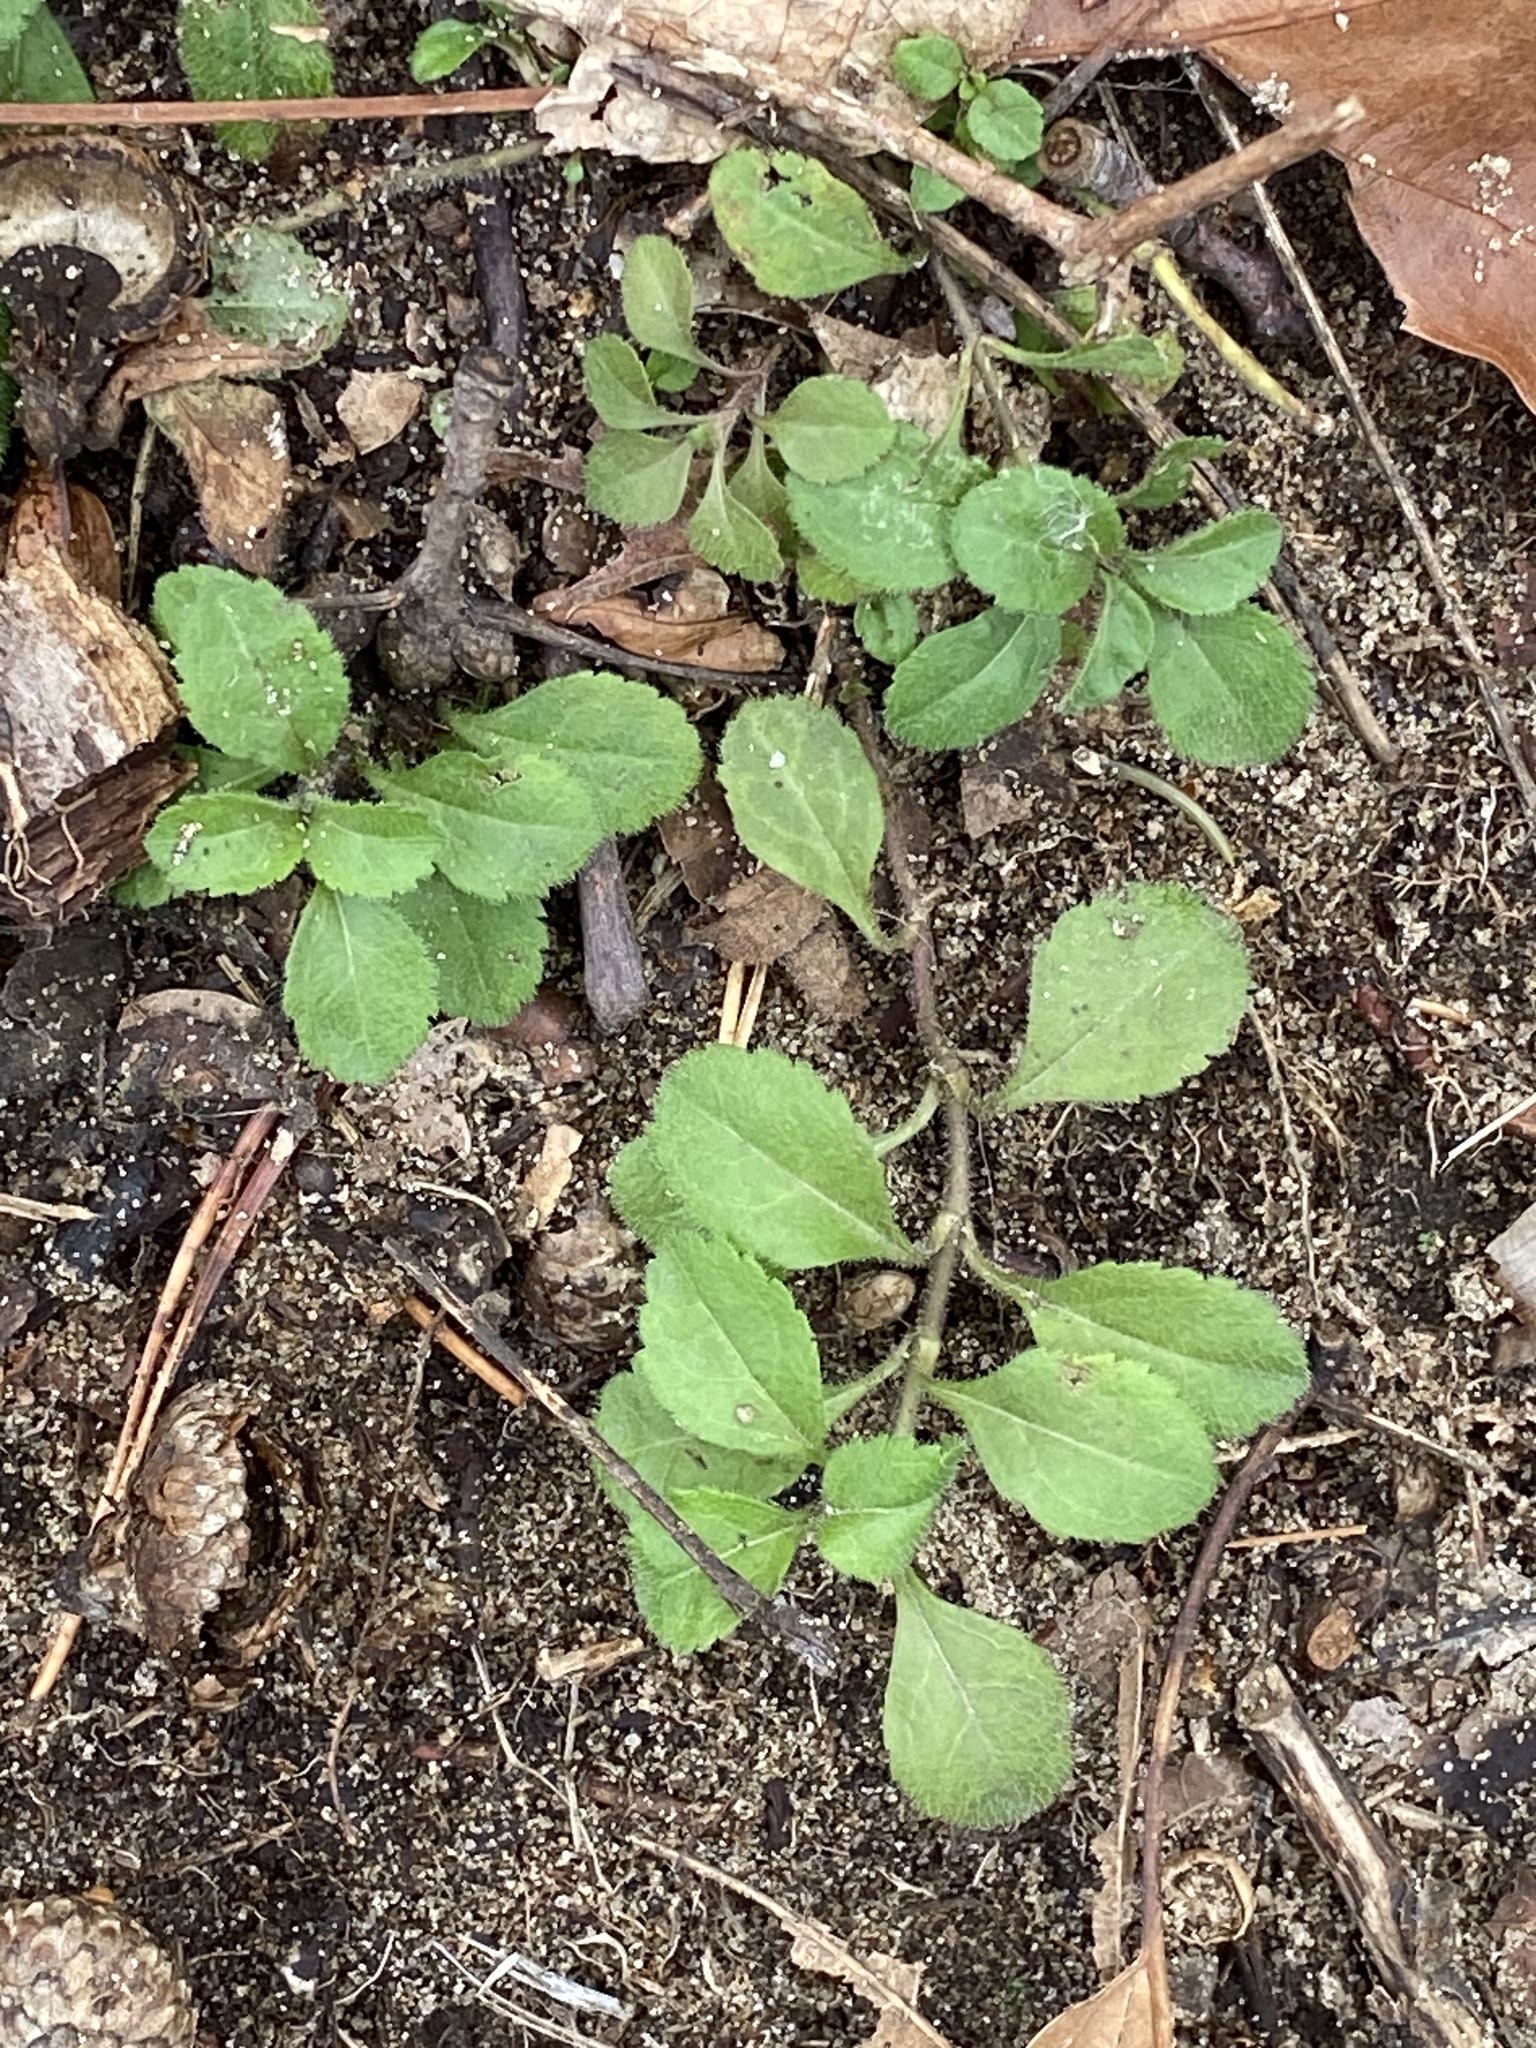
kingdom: Plantae
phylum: Tracheophyta
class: Magnoliopsida
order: Lamiales
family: Plantaginaceae
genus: Veronica
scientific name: Veronica officinalis
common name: Common speedwell
